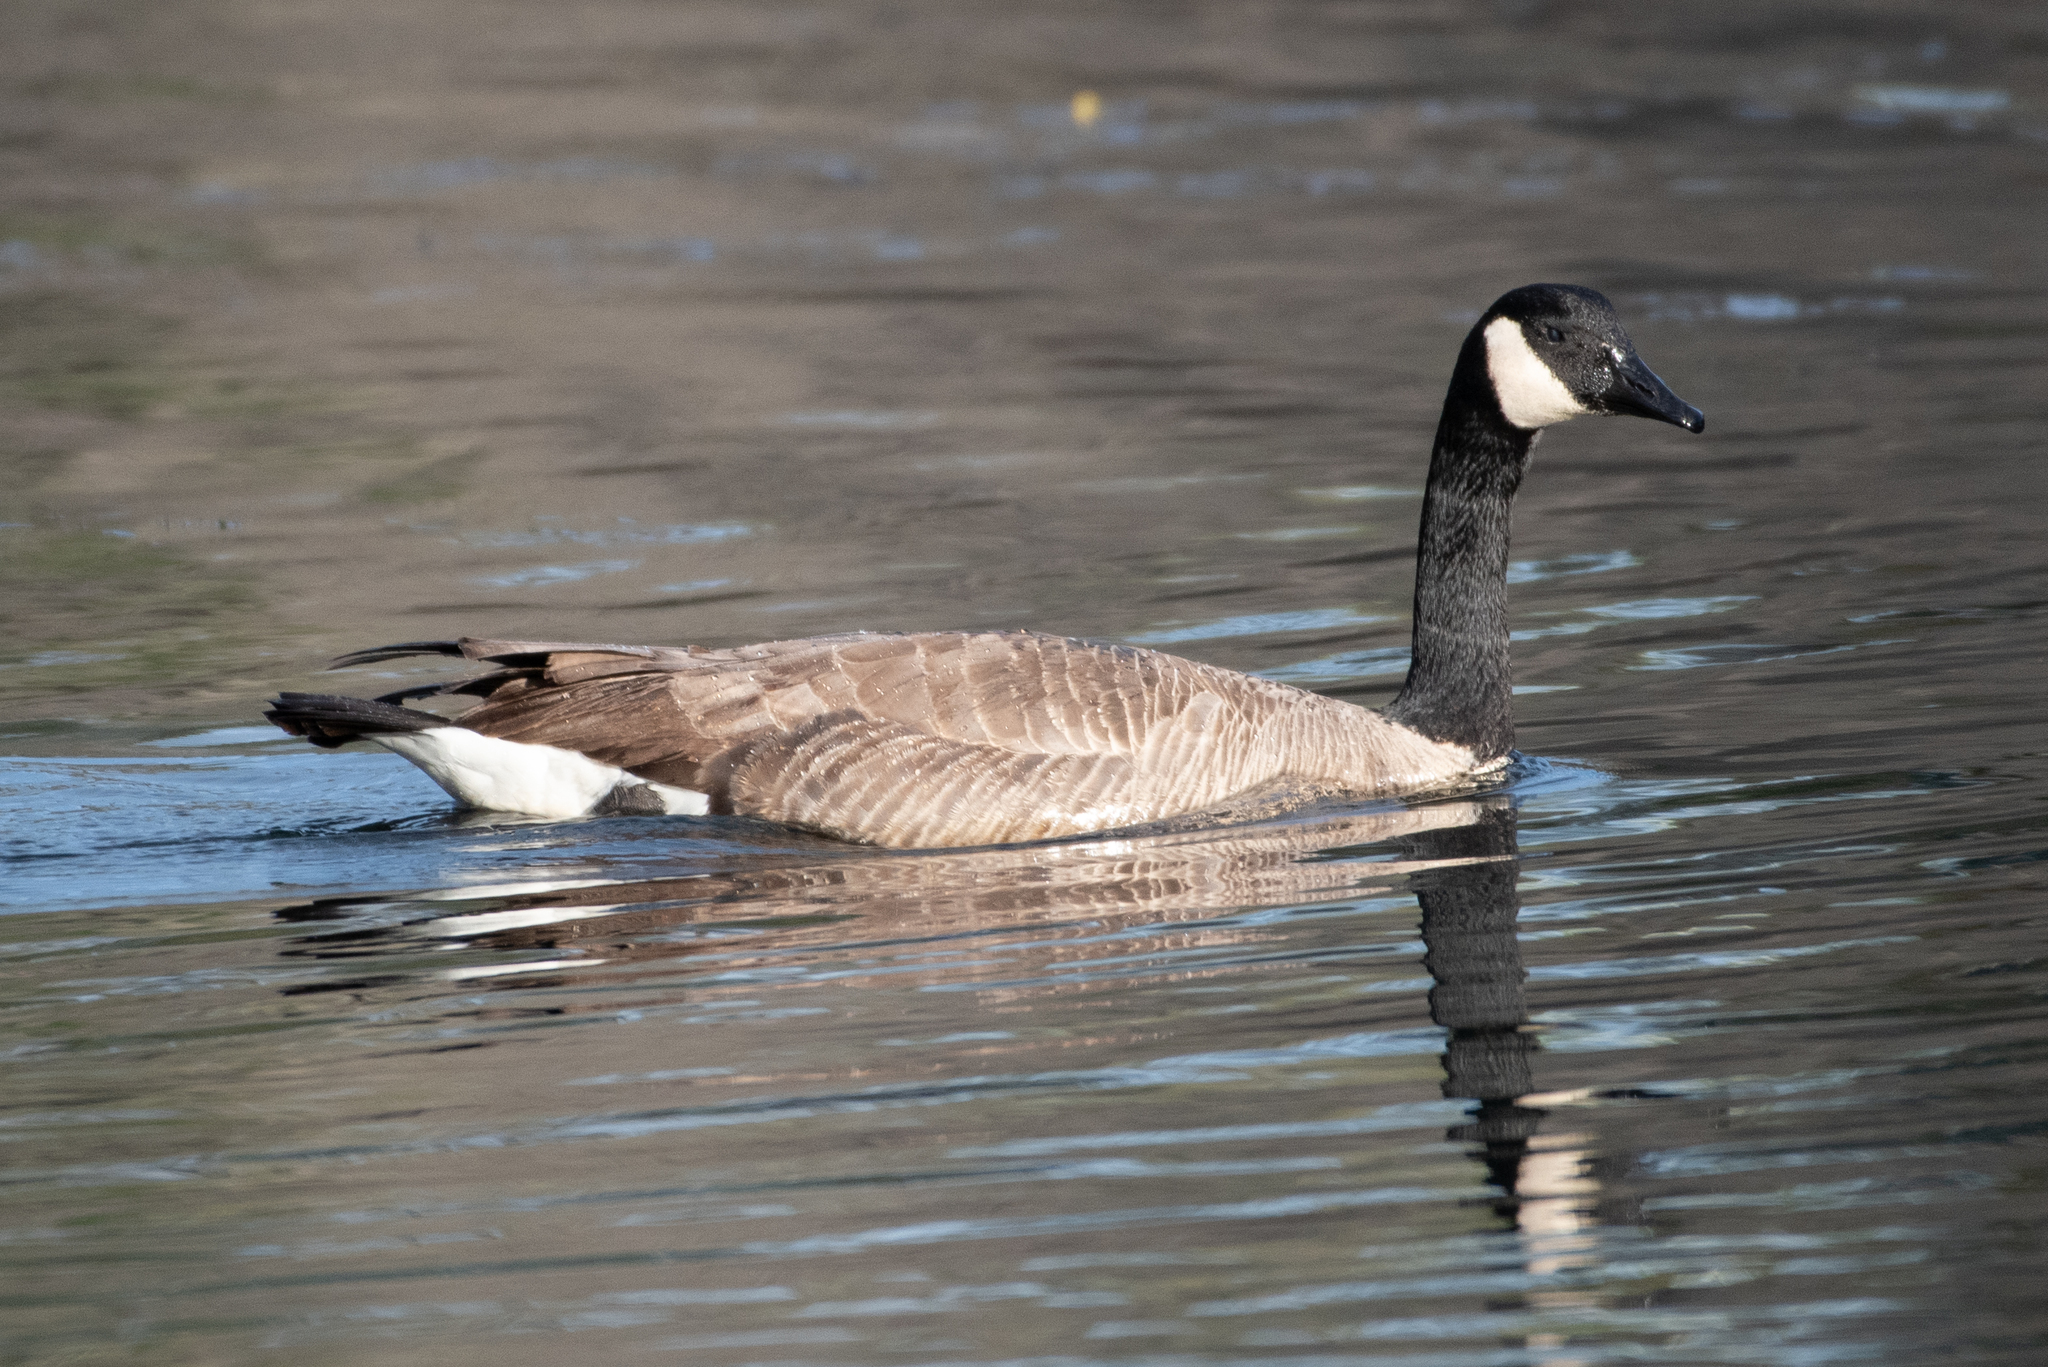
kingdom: Animalia
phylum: Chordata
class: Aves
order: Anseriformes
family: Anatidae
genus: Branta
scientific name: Branta canadensis
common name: Canada goose
